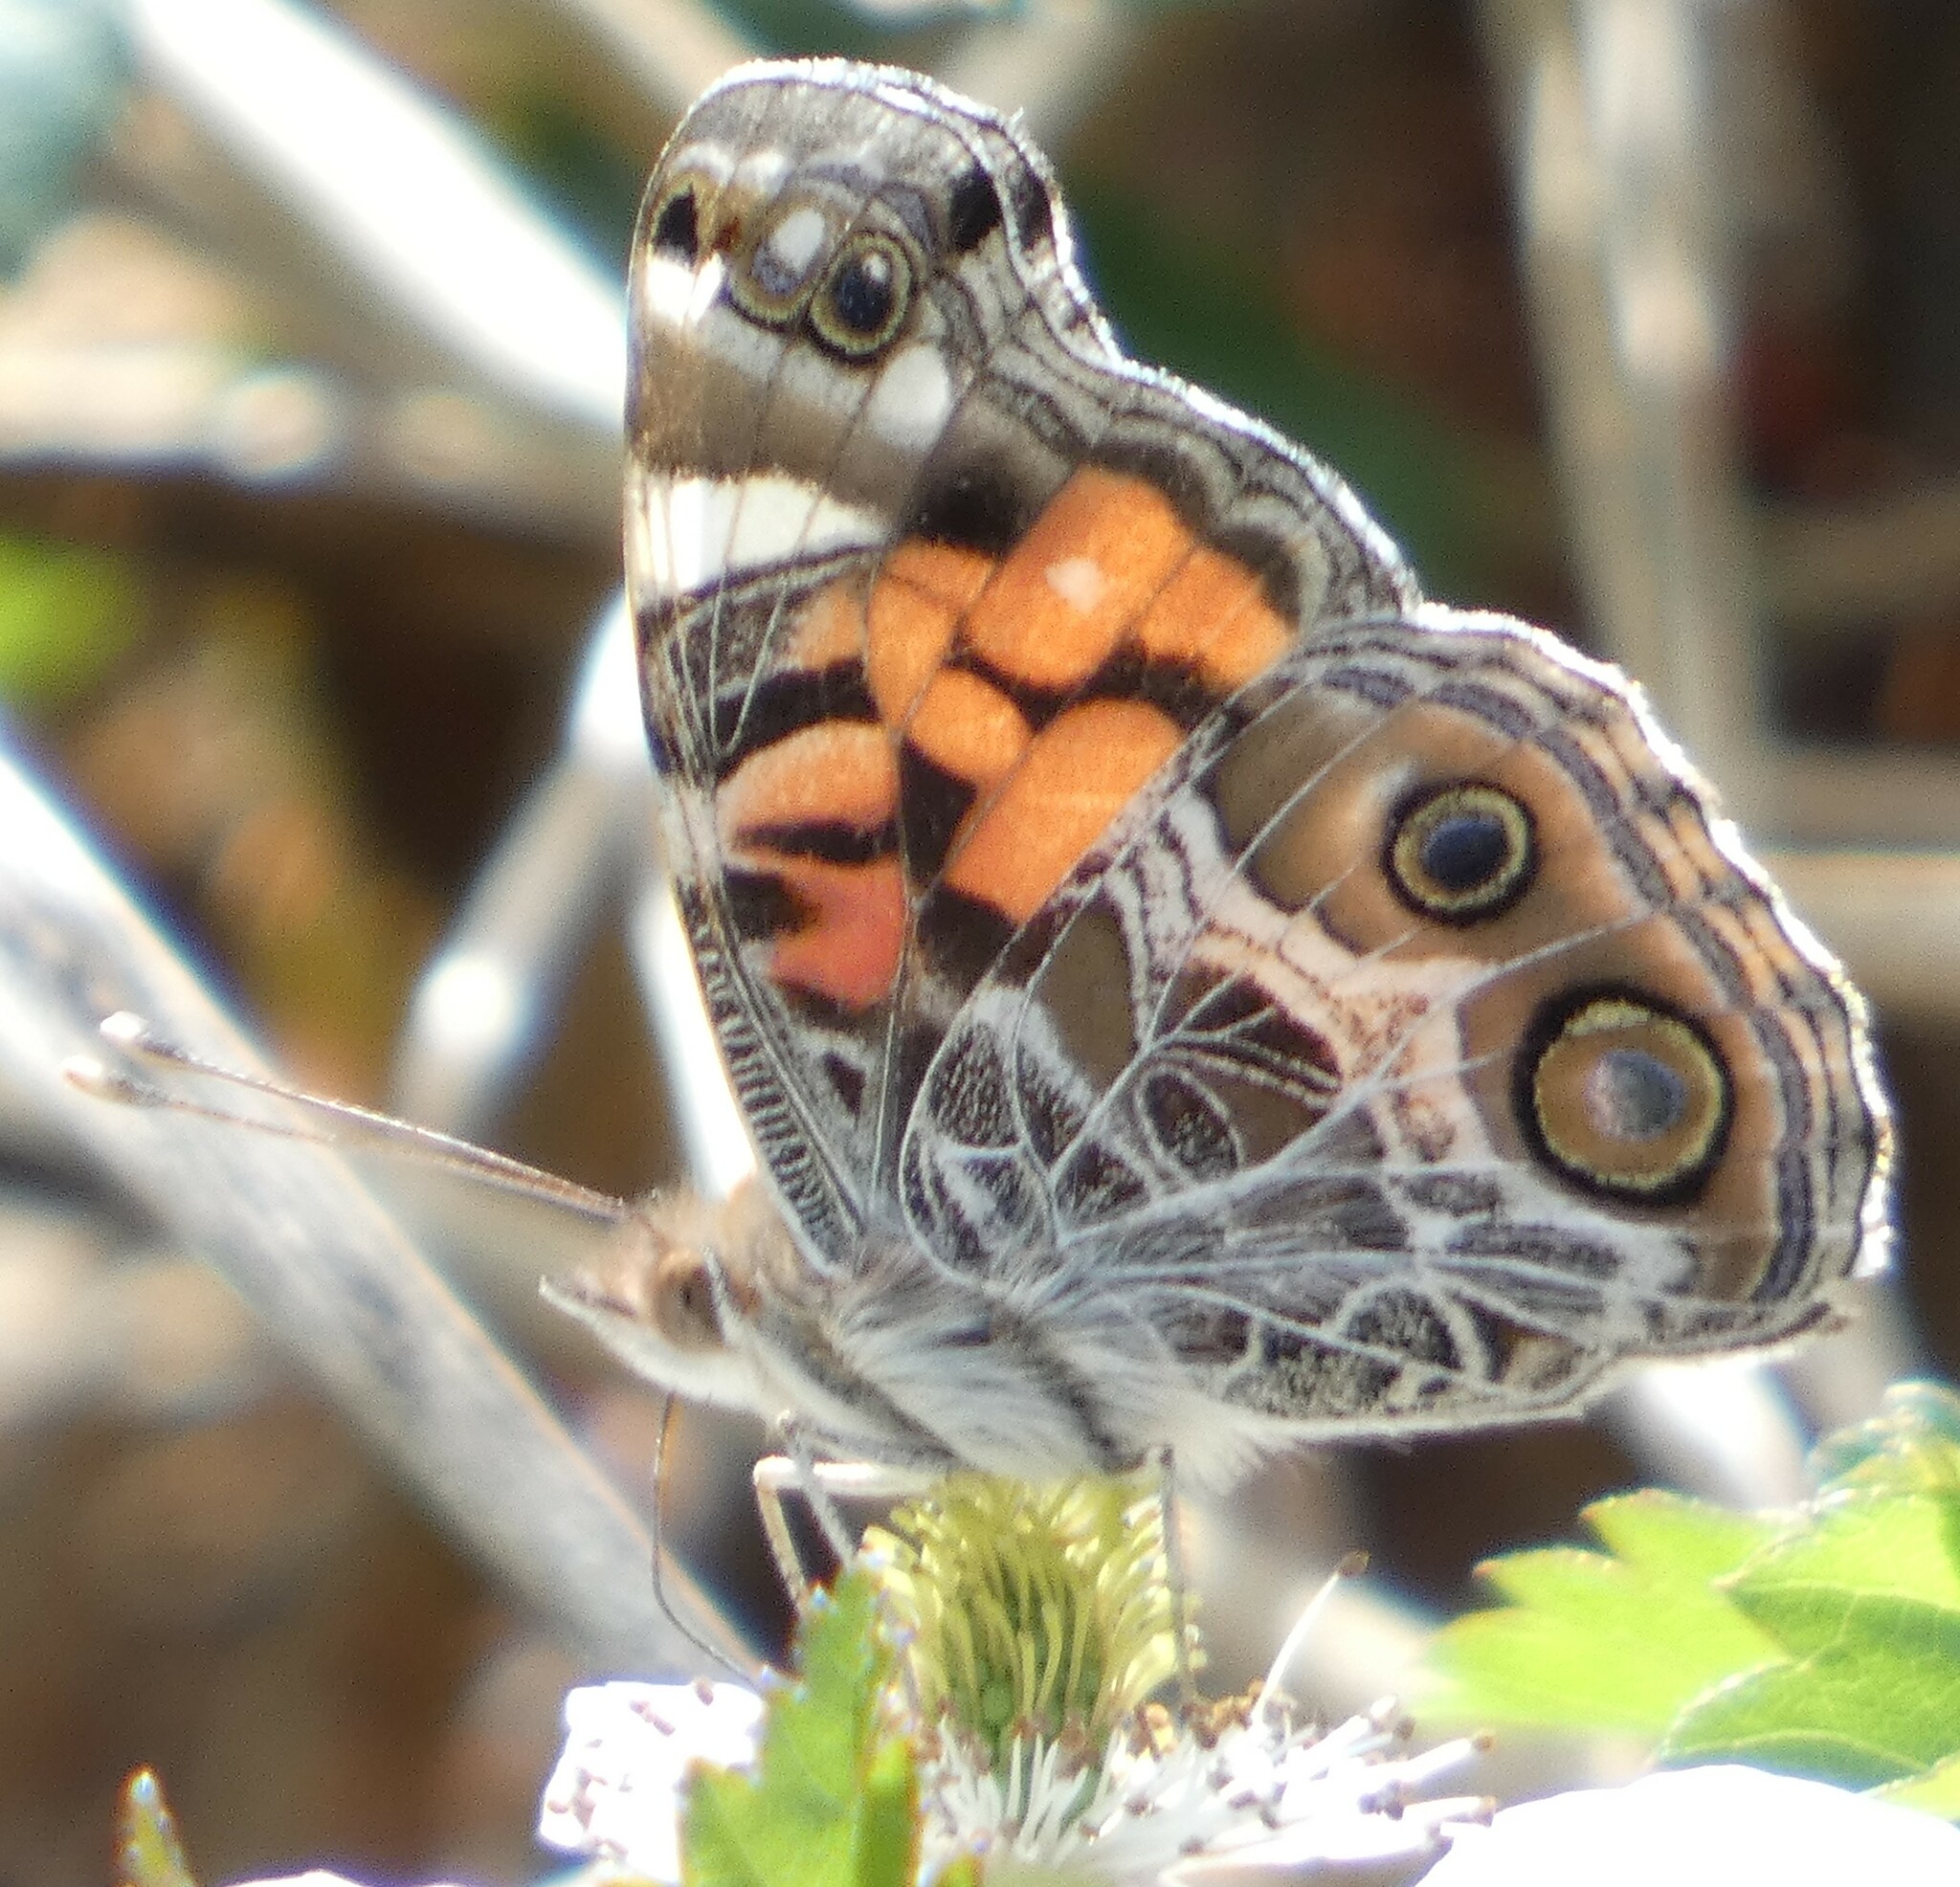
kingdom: Animalia
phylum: Arthropoda
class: Insecta
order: Lepidoptera
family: Nymphalidae
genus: Vanessa
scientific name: Vanessa virginiensis
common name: American lady
